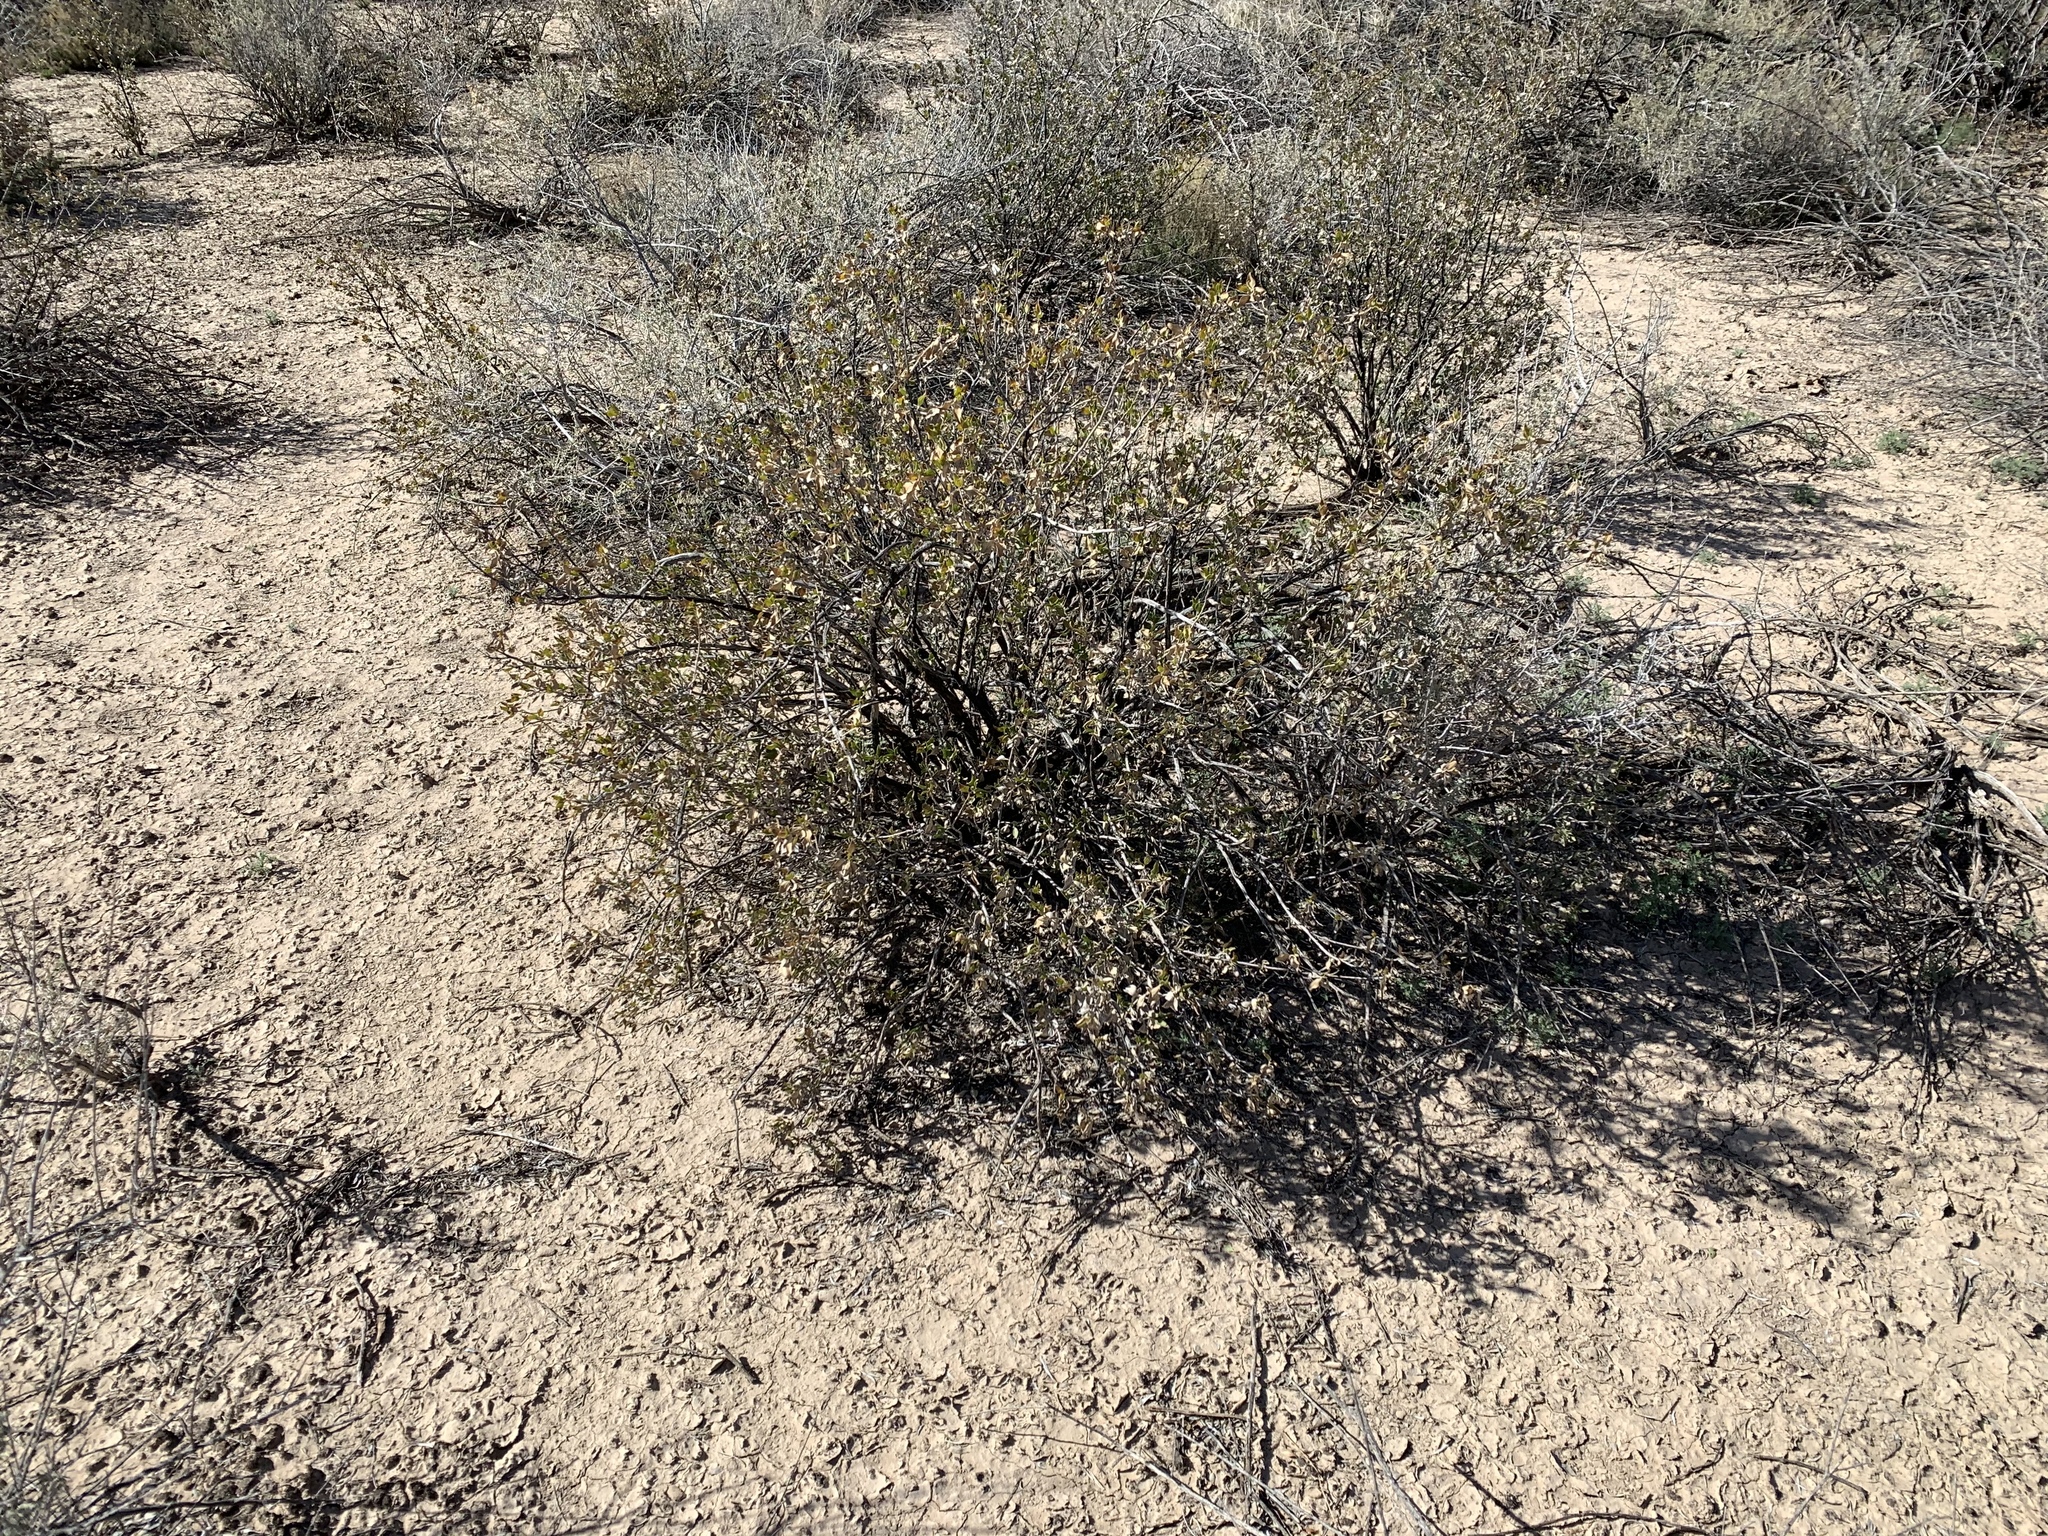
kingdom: Plantae
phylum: Tracheophyta
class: Magnoliopsida
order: Asterales
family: Asteraceae
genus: Flourensia
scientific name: Flourensia cernua
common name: Varnishbush
